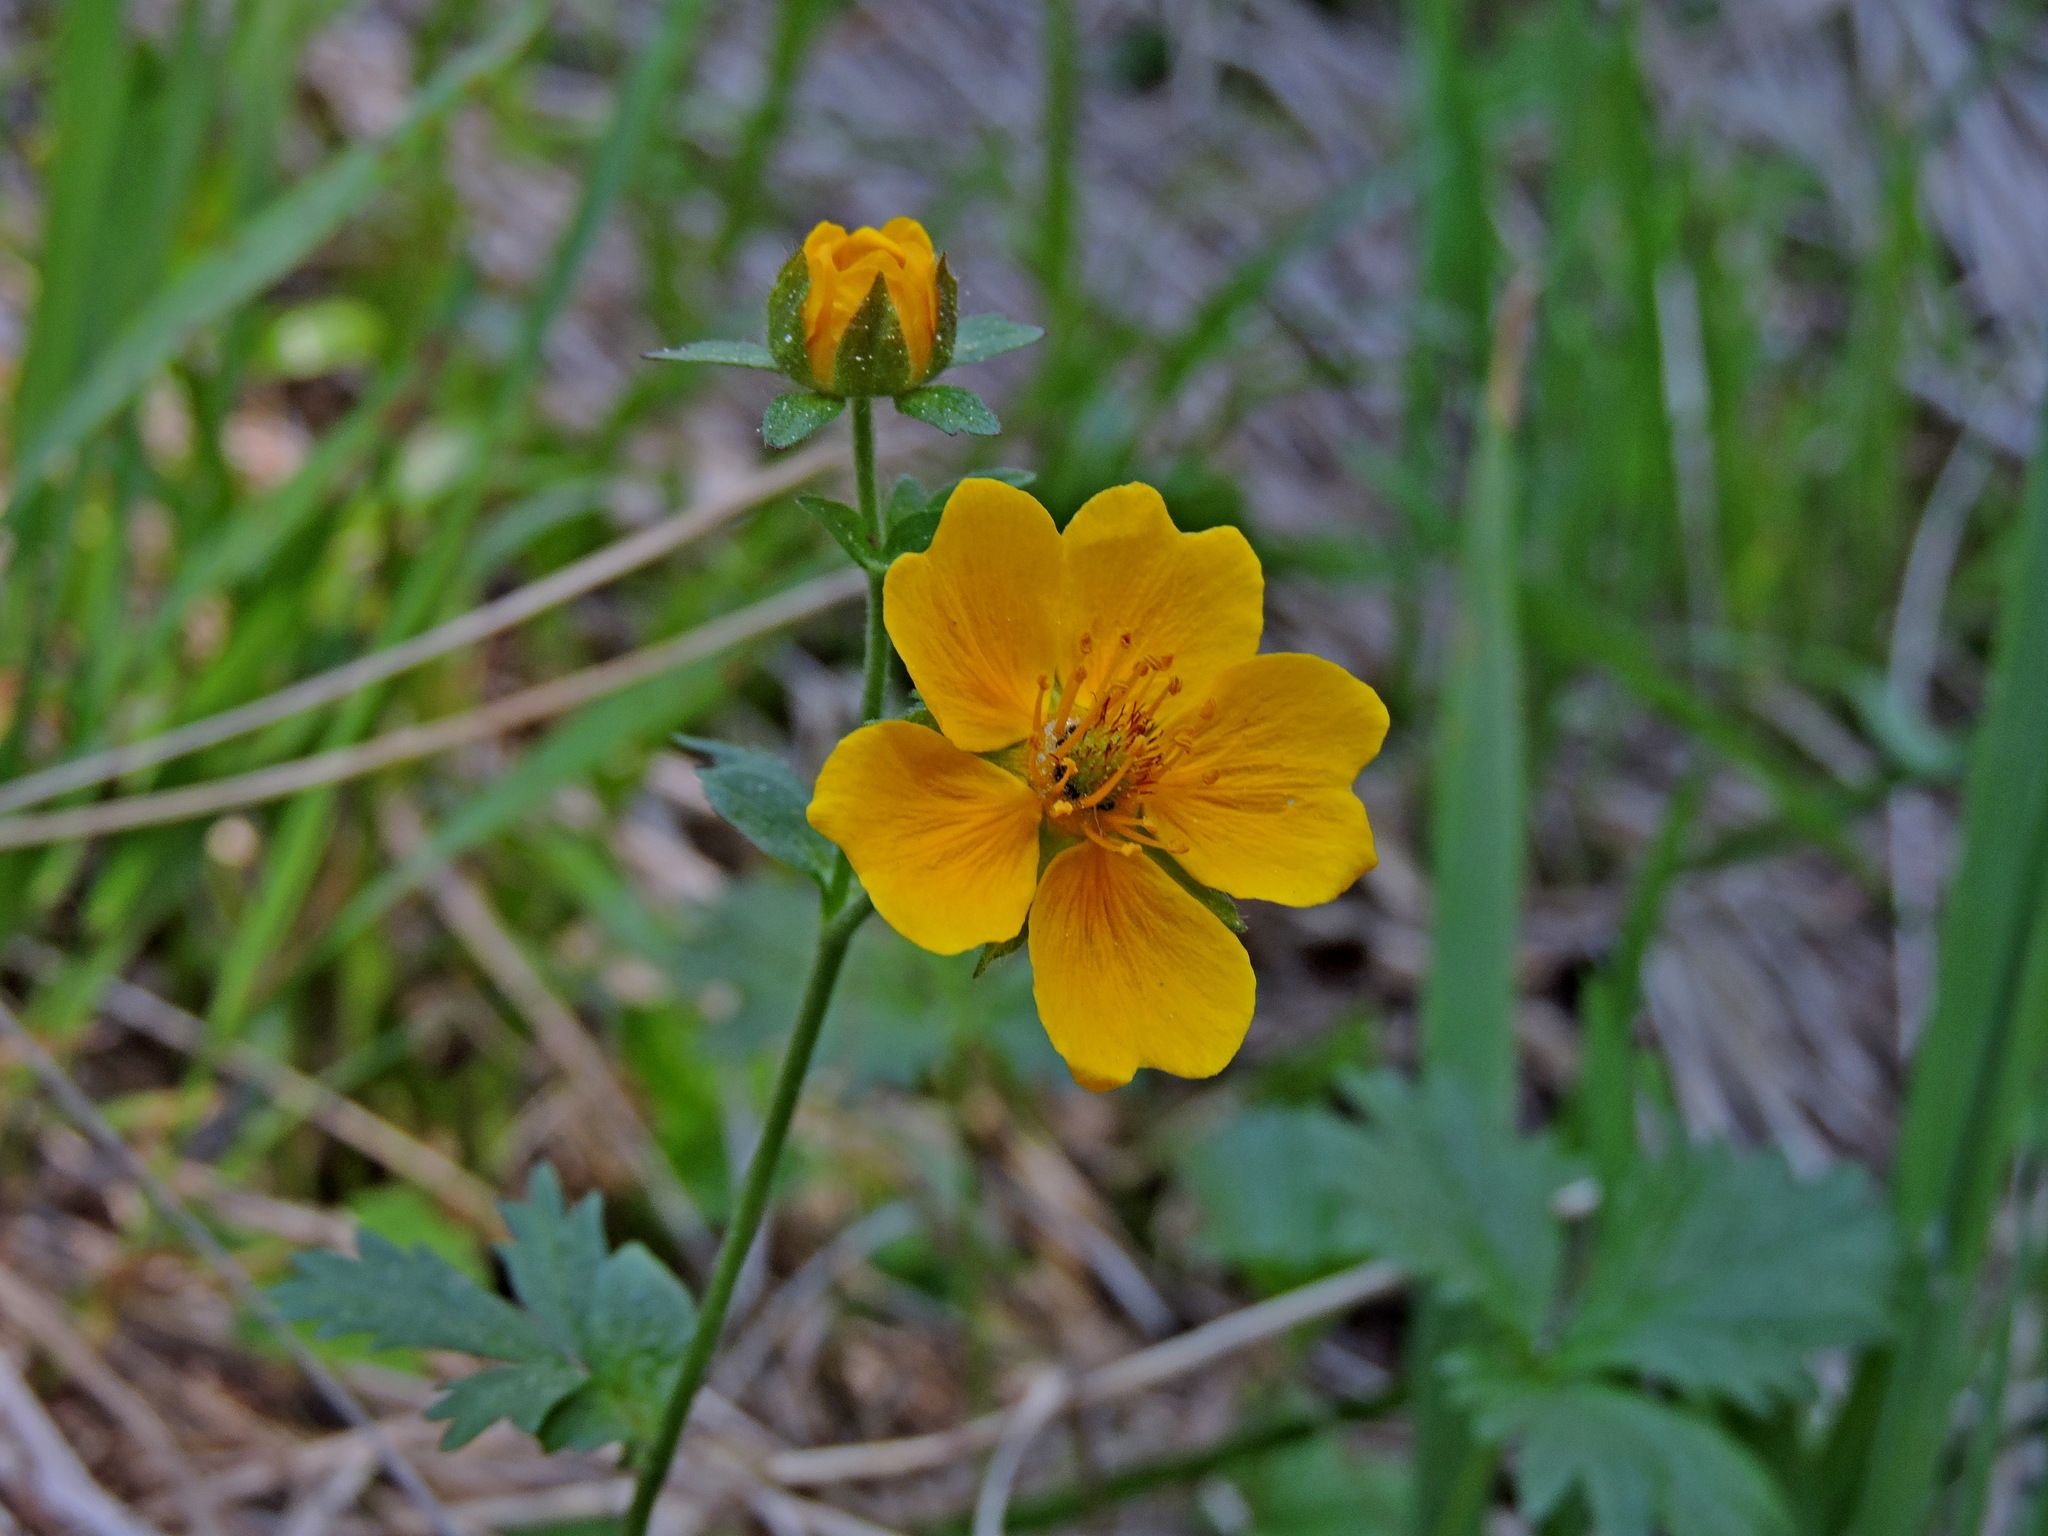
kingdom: Plantae
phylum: Tracheophyta
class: Magnoliopsida
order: Rosales
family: Rosaceae
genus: Potentilla
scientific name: Potentilla flabellifolia
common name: Mount rainier cinquefoil
